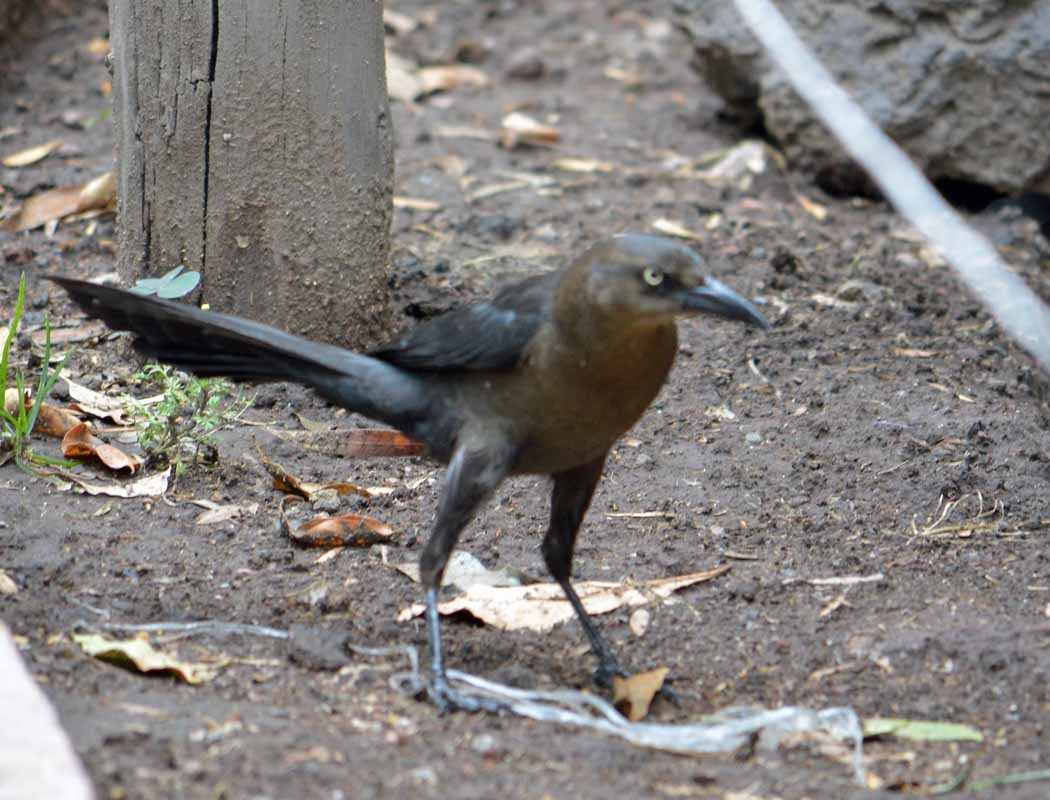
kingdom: Animalia
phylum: Chordata
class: Aves
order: Passeriformes
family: Icteridae
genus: Quiscalus
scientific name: Quiscalus mexicanus
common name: Great-tailed grackle
